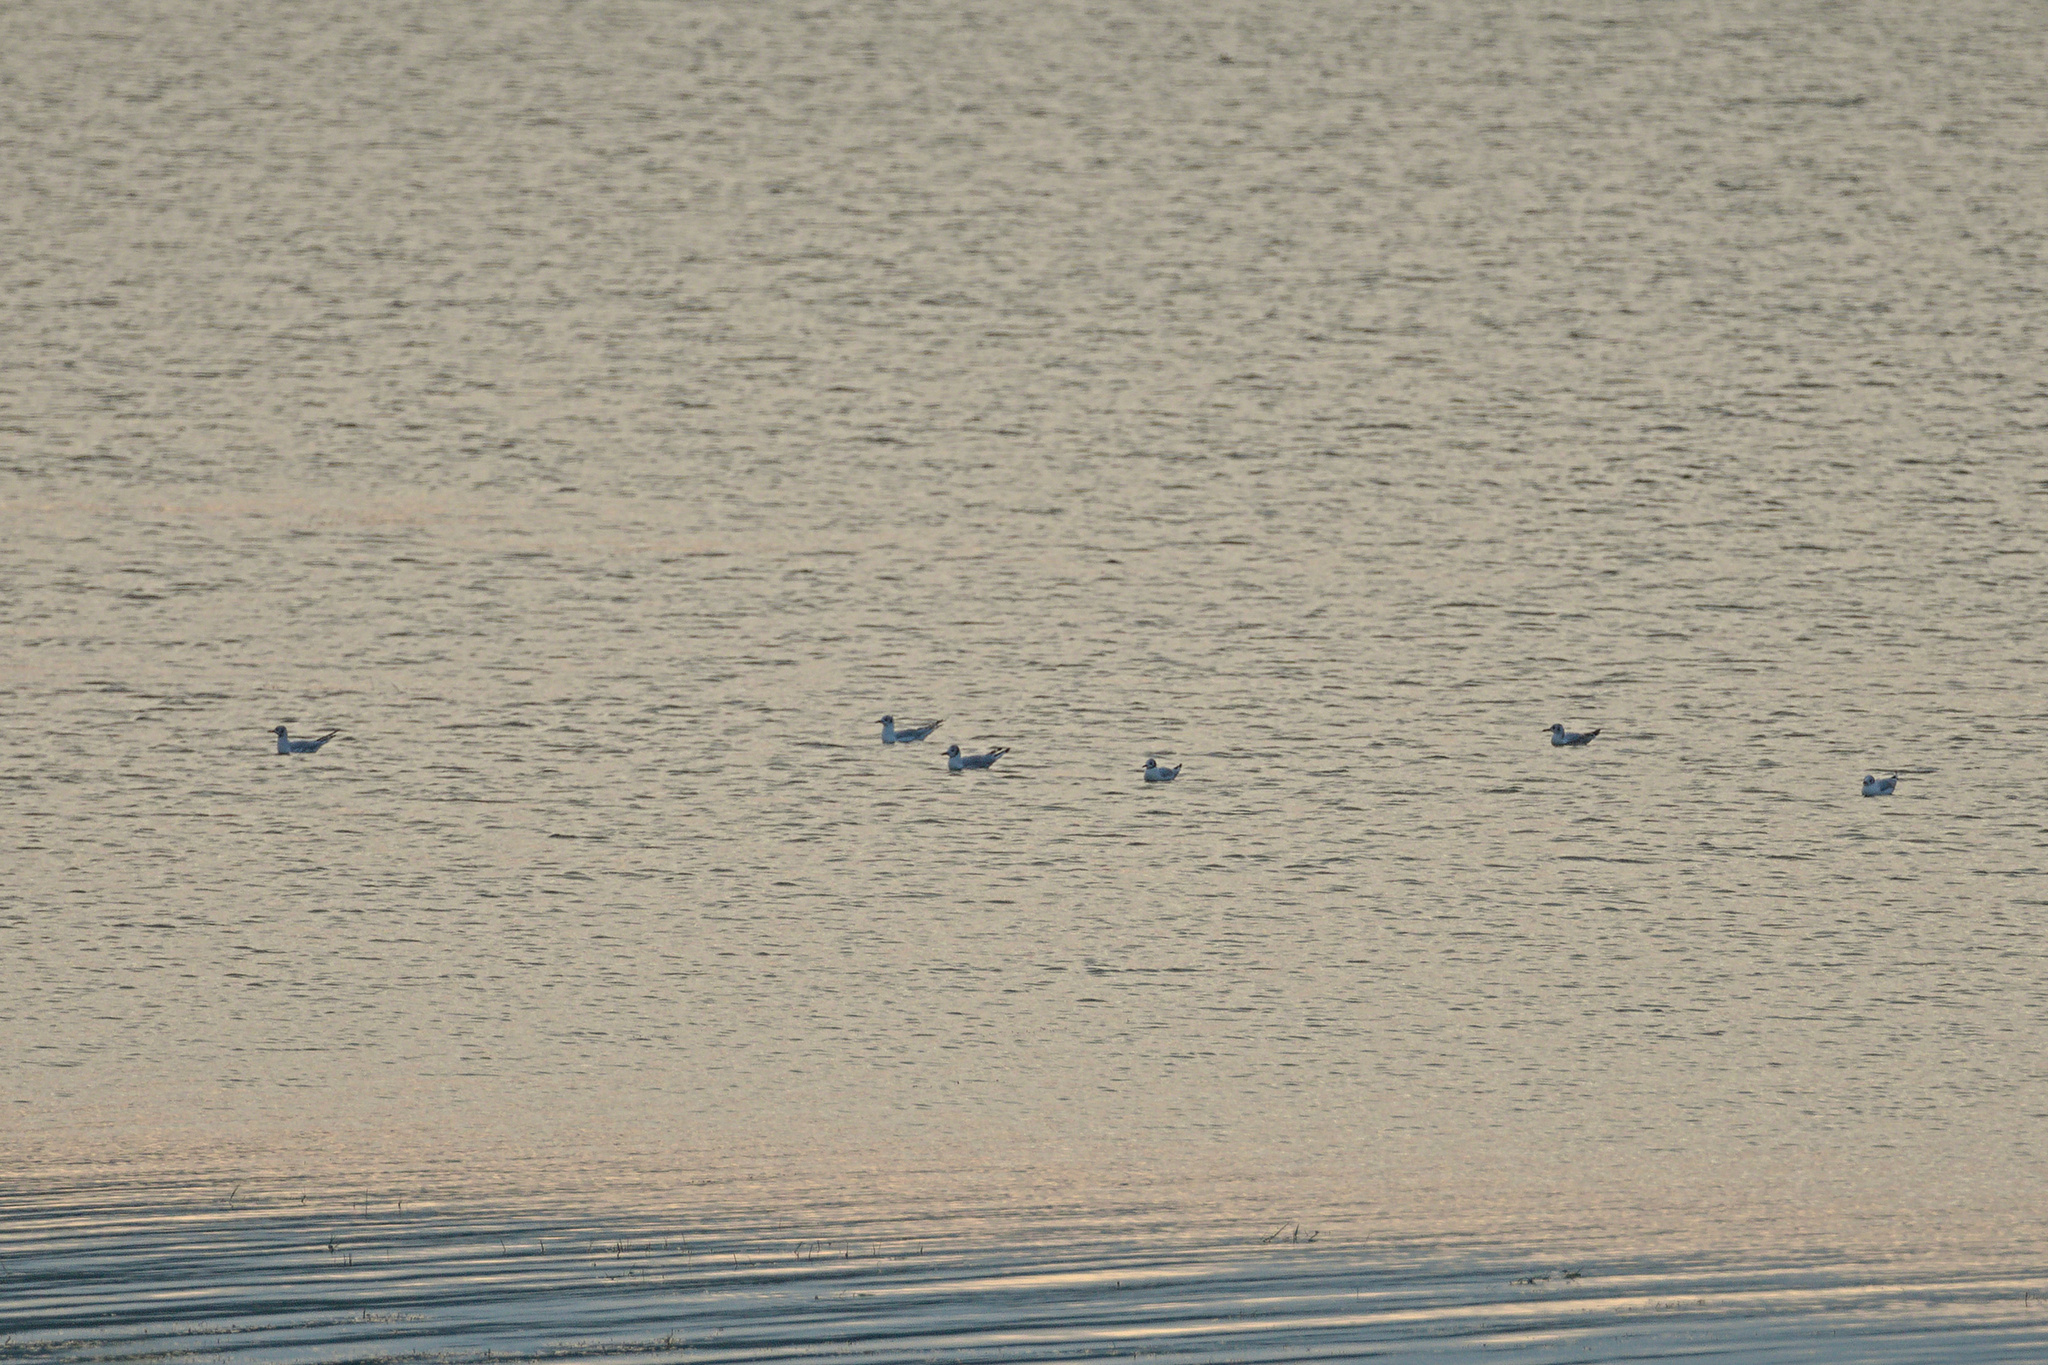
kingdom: Animalia
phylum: Chordata
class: Aves
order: Charadriiformes
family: Laridae
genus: Chroicocephalus
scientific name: Chroicocephalus ridibundus
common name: Black-headed gull
